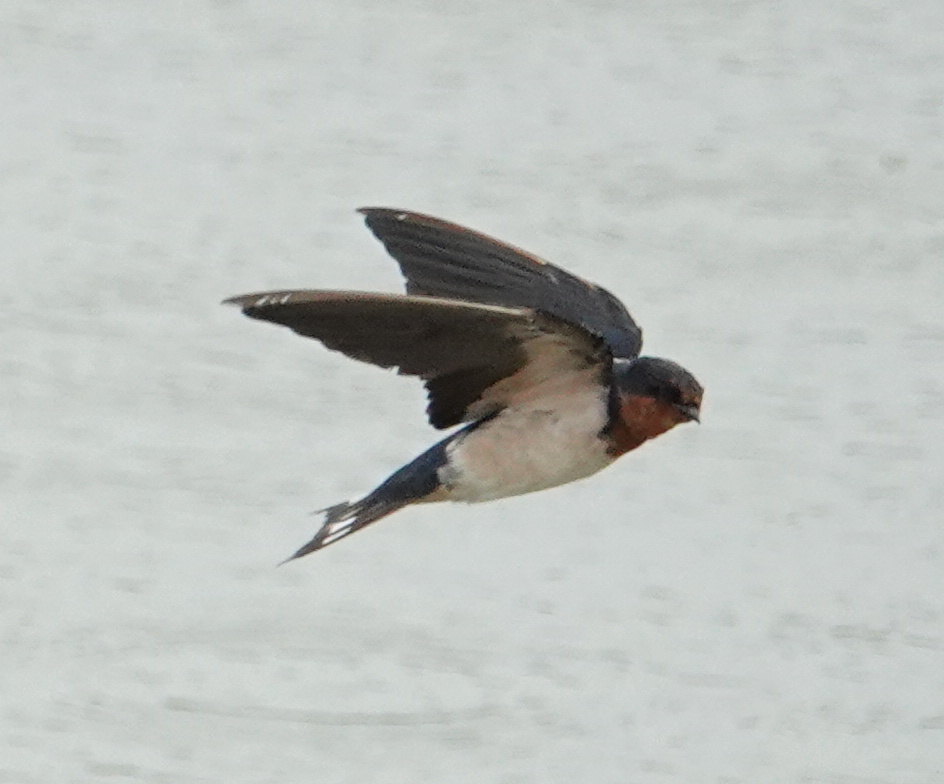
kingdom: Animalia
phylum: Chordata
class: Aves
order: Passeriformes
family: Hirundinidae
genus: Hirundo
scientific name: Hirundo rustica
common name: Barn swallow
